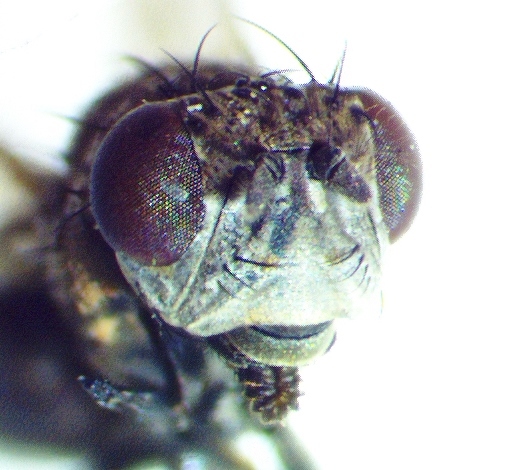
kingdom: Animalia
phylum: Arthropoda
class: Insecta
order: Diptera
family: Ephydridae
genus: Paralimna
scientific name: Paralimna punctipennis
